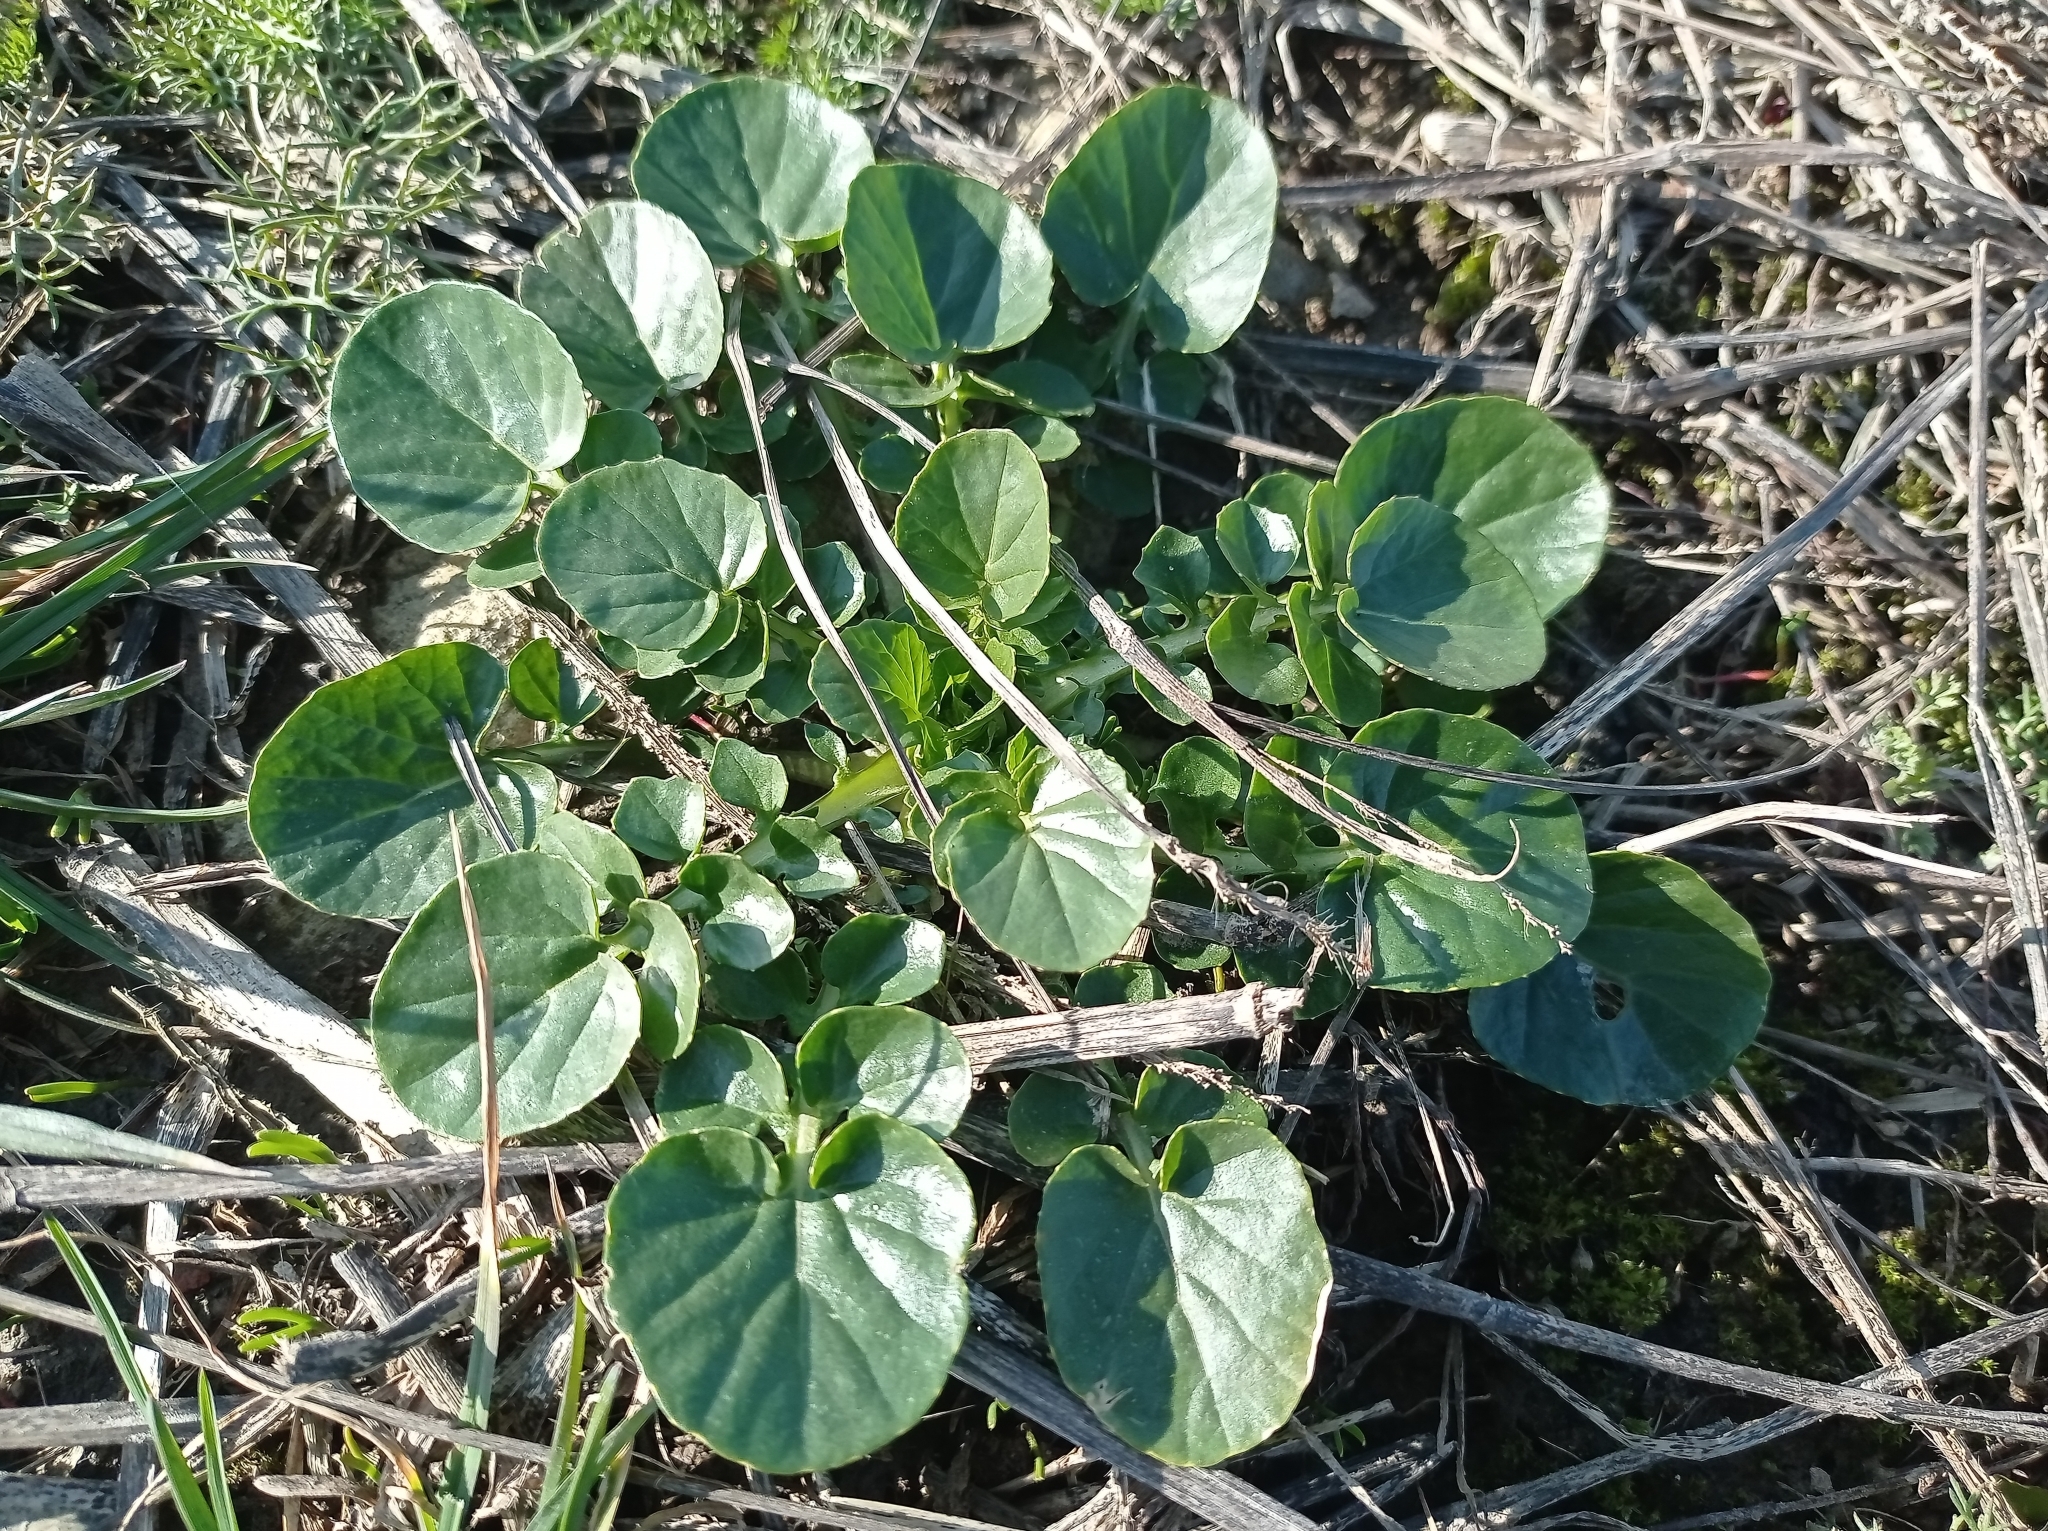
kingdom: Plantae
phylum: Tracheophyta
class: Magnoliopsida
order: Brassicales
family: Brassicaceae
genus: Barbarea
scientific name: Barbarea vulgaris
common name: Cressy-greens
